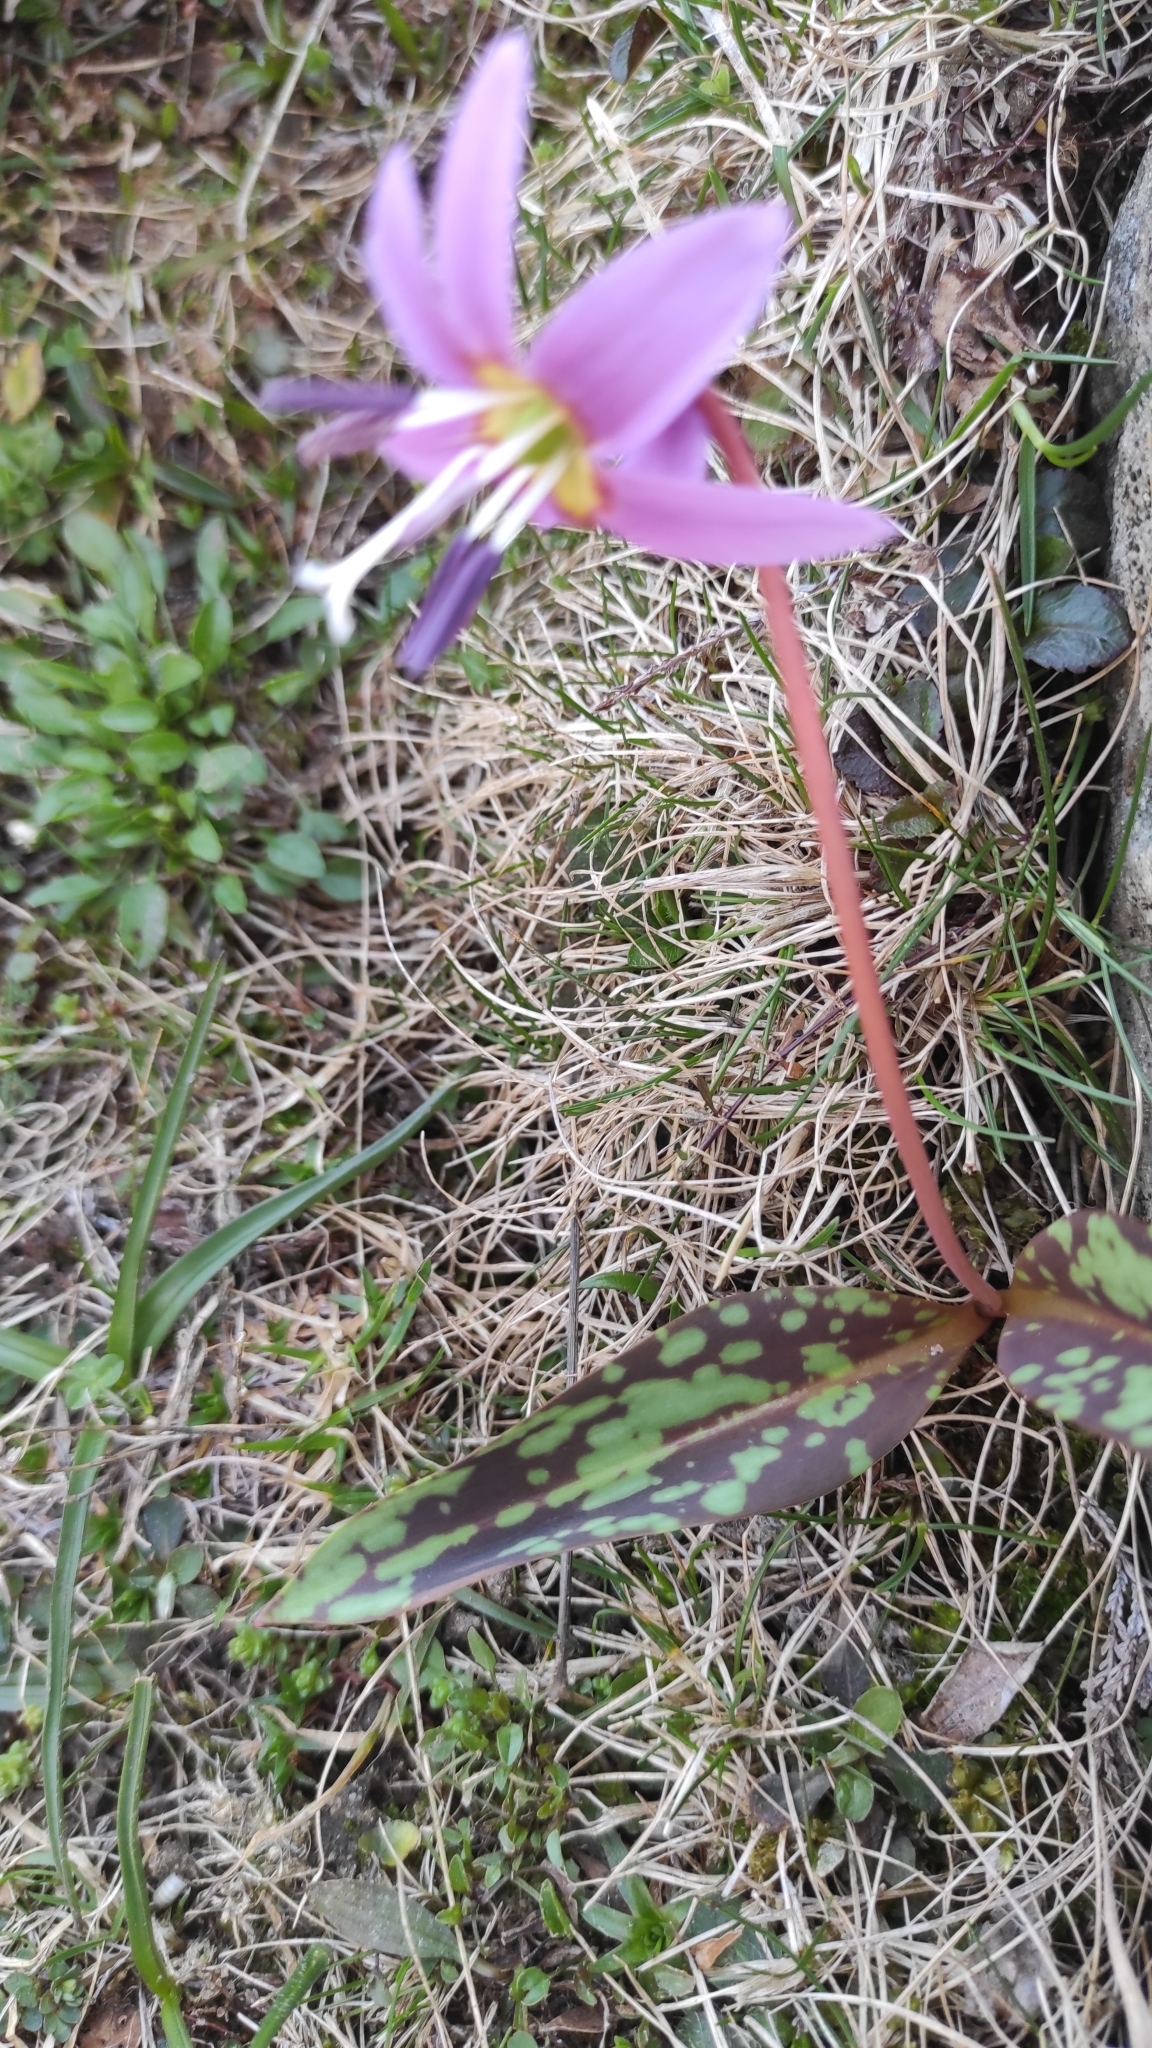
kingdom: Plantae
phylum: Tracheophyta
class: Liliopsida
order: Liliales
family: Liliaceae
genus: Erythronium
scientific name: Erythronium dens-canis
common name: Dog's-tooth-violet
